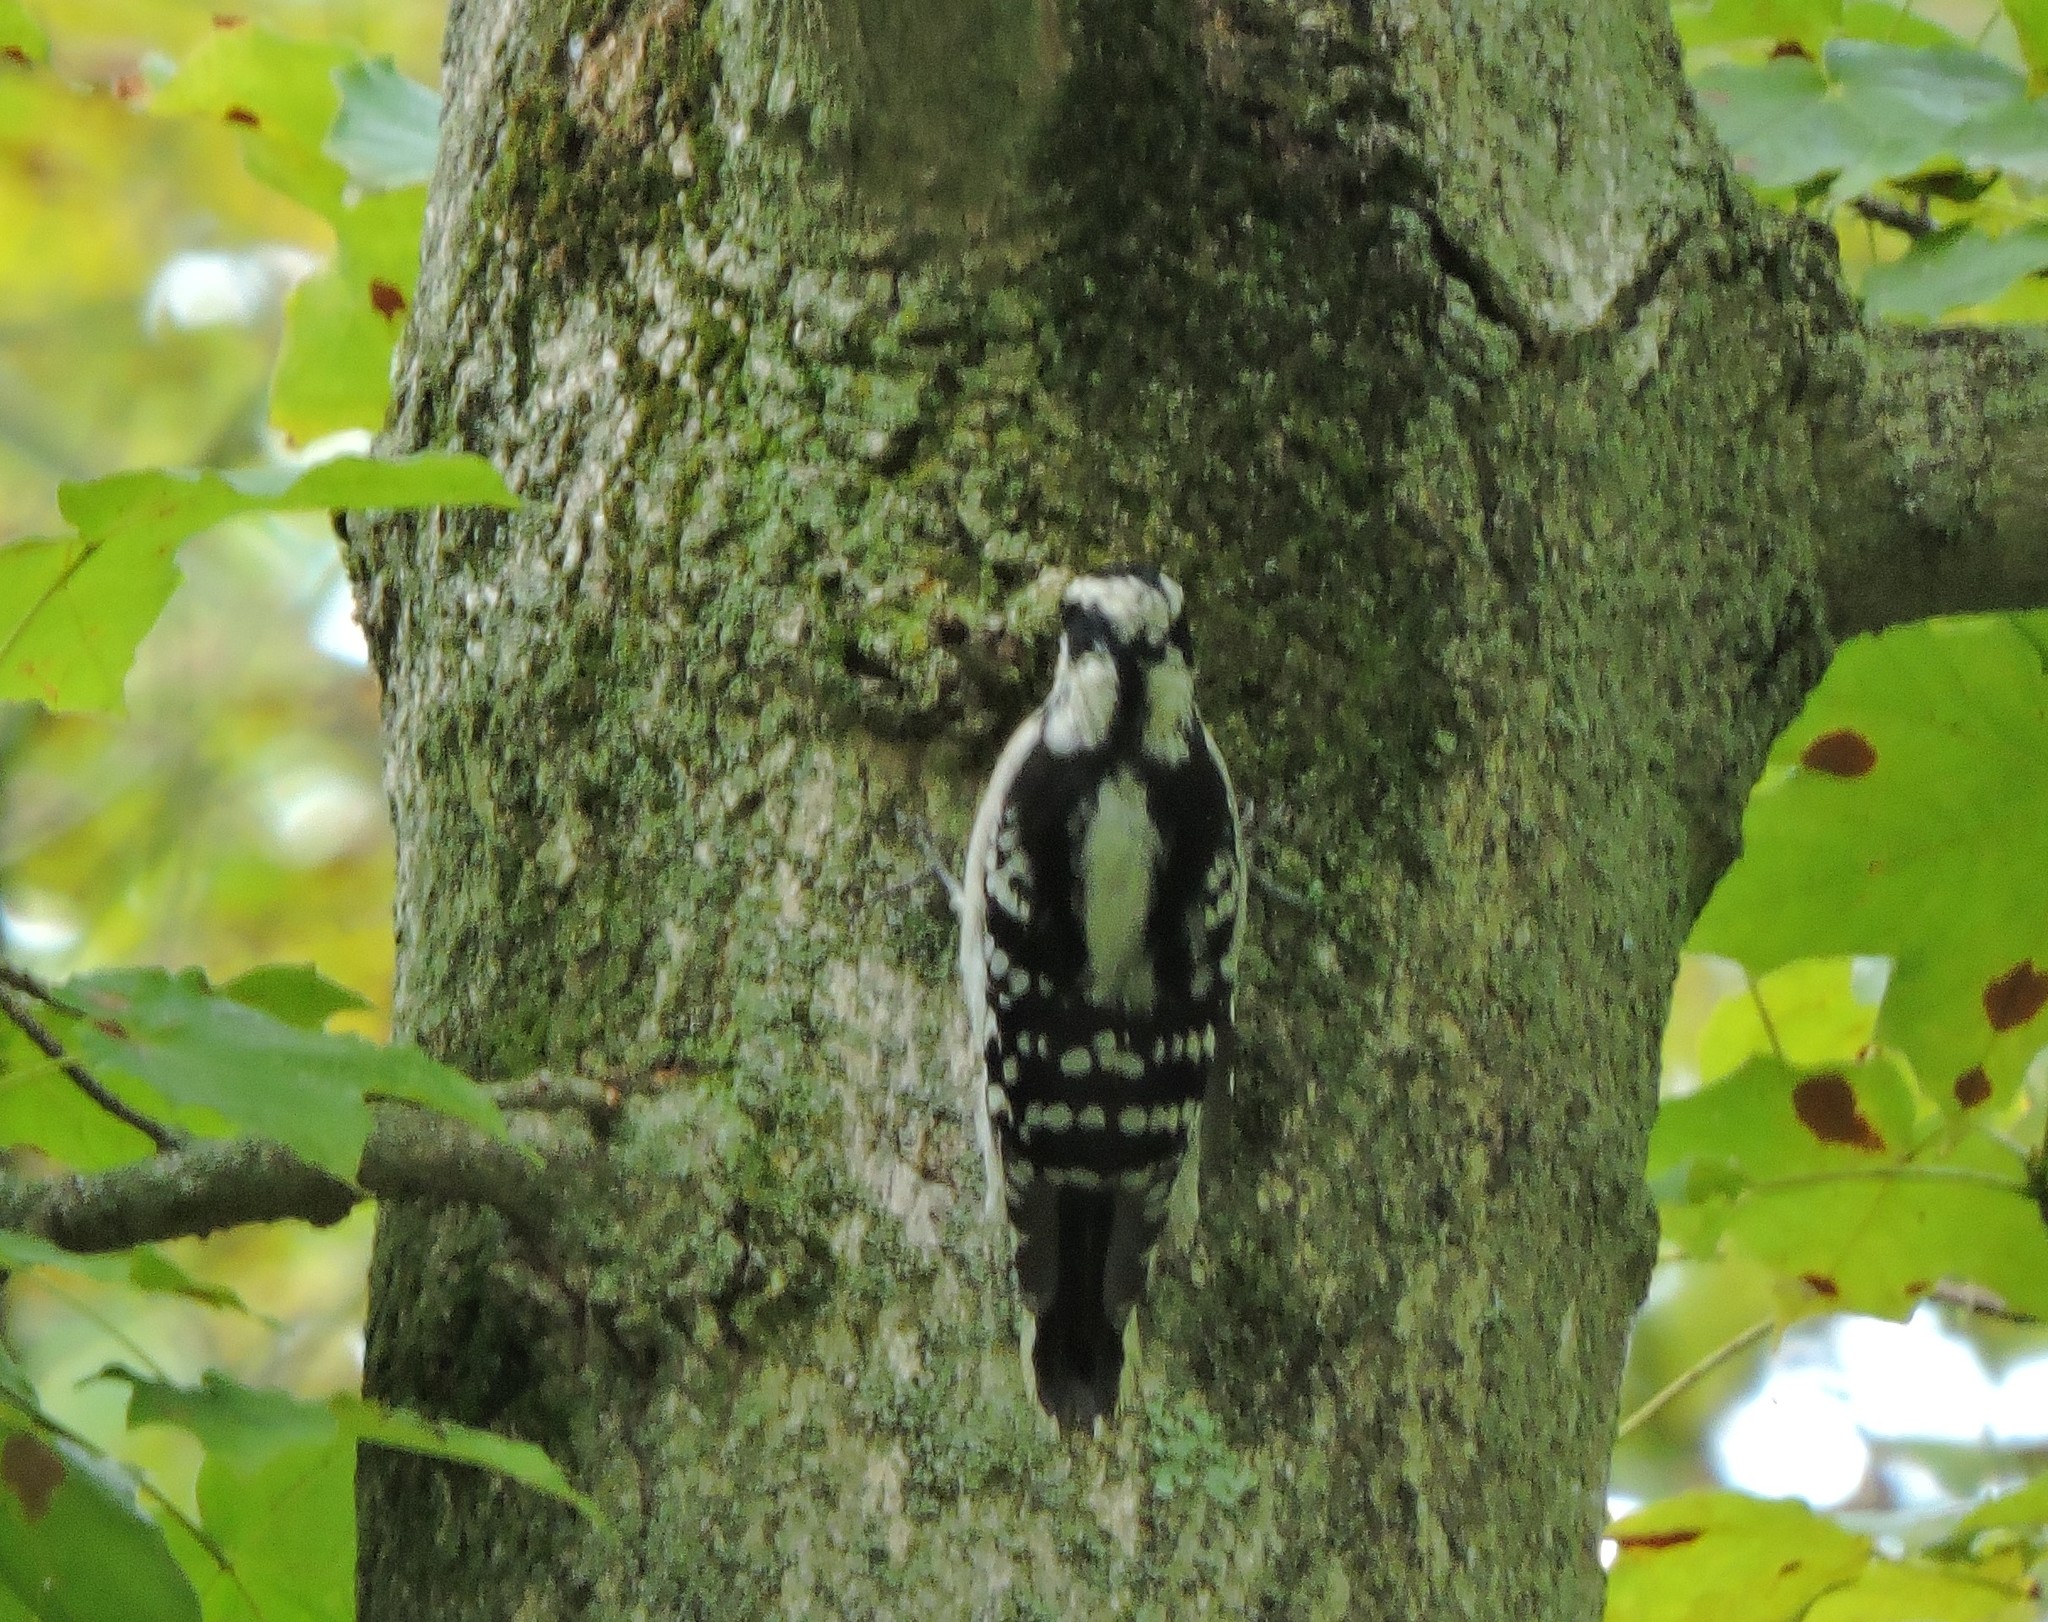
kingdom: Animalia
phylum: Chordata
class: Aves
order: Piciformes
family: Picidae
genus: Dryobates
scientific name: Dryobates pubescens
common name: Downy woodpecker
